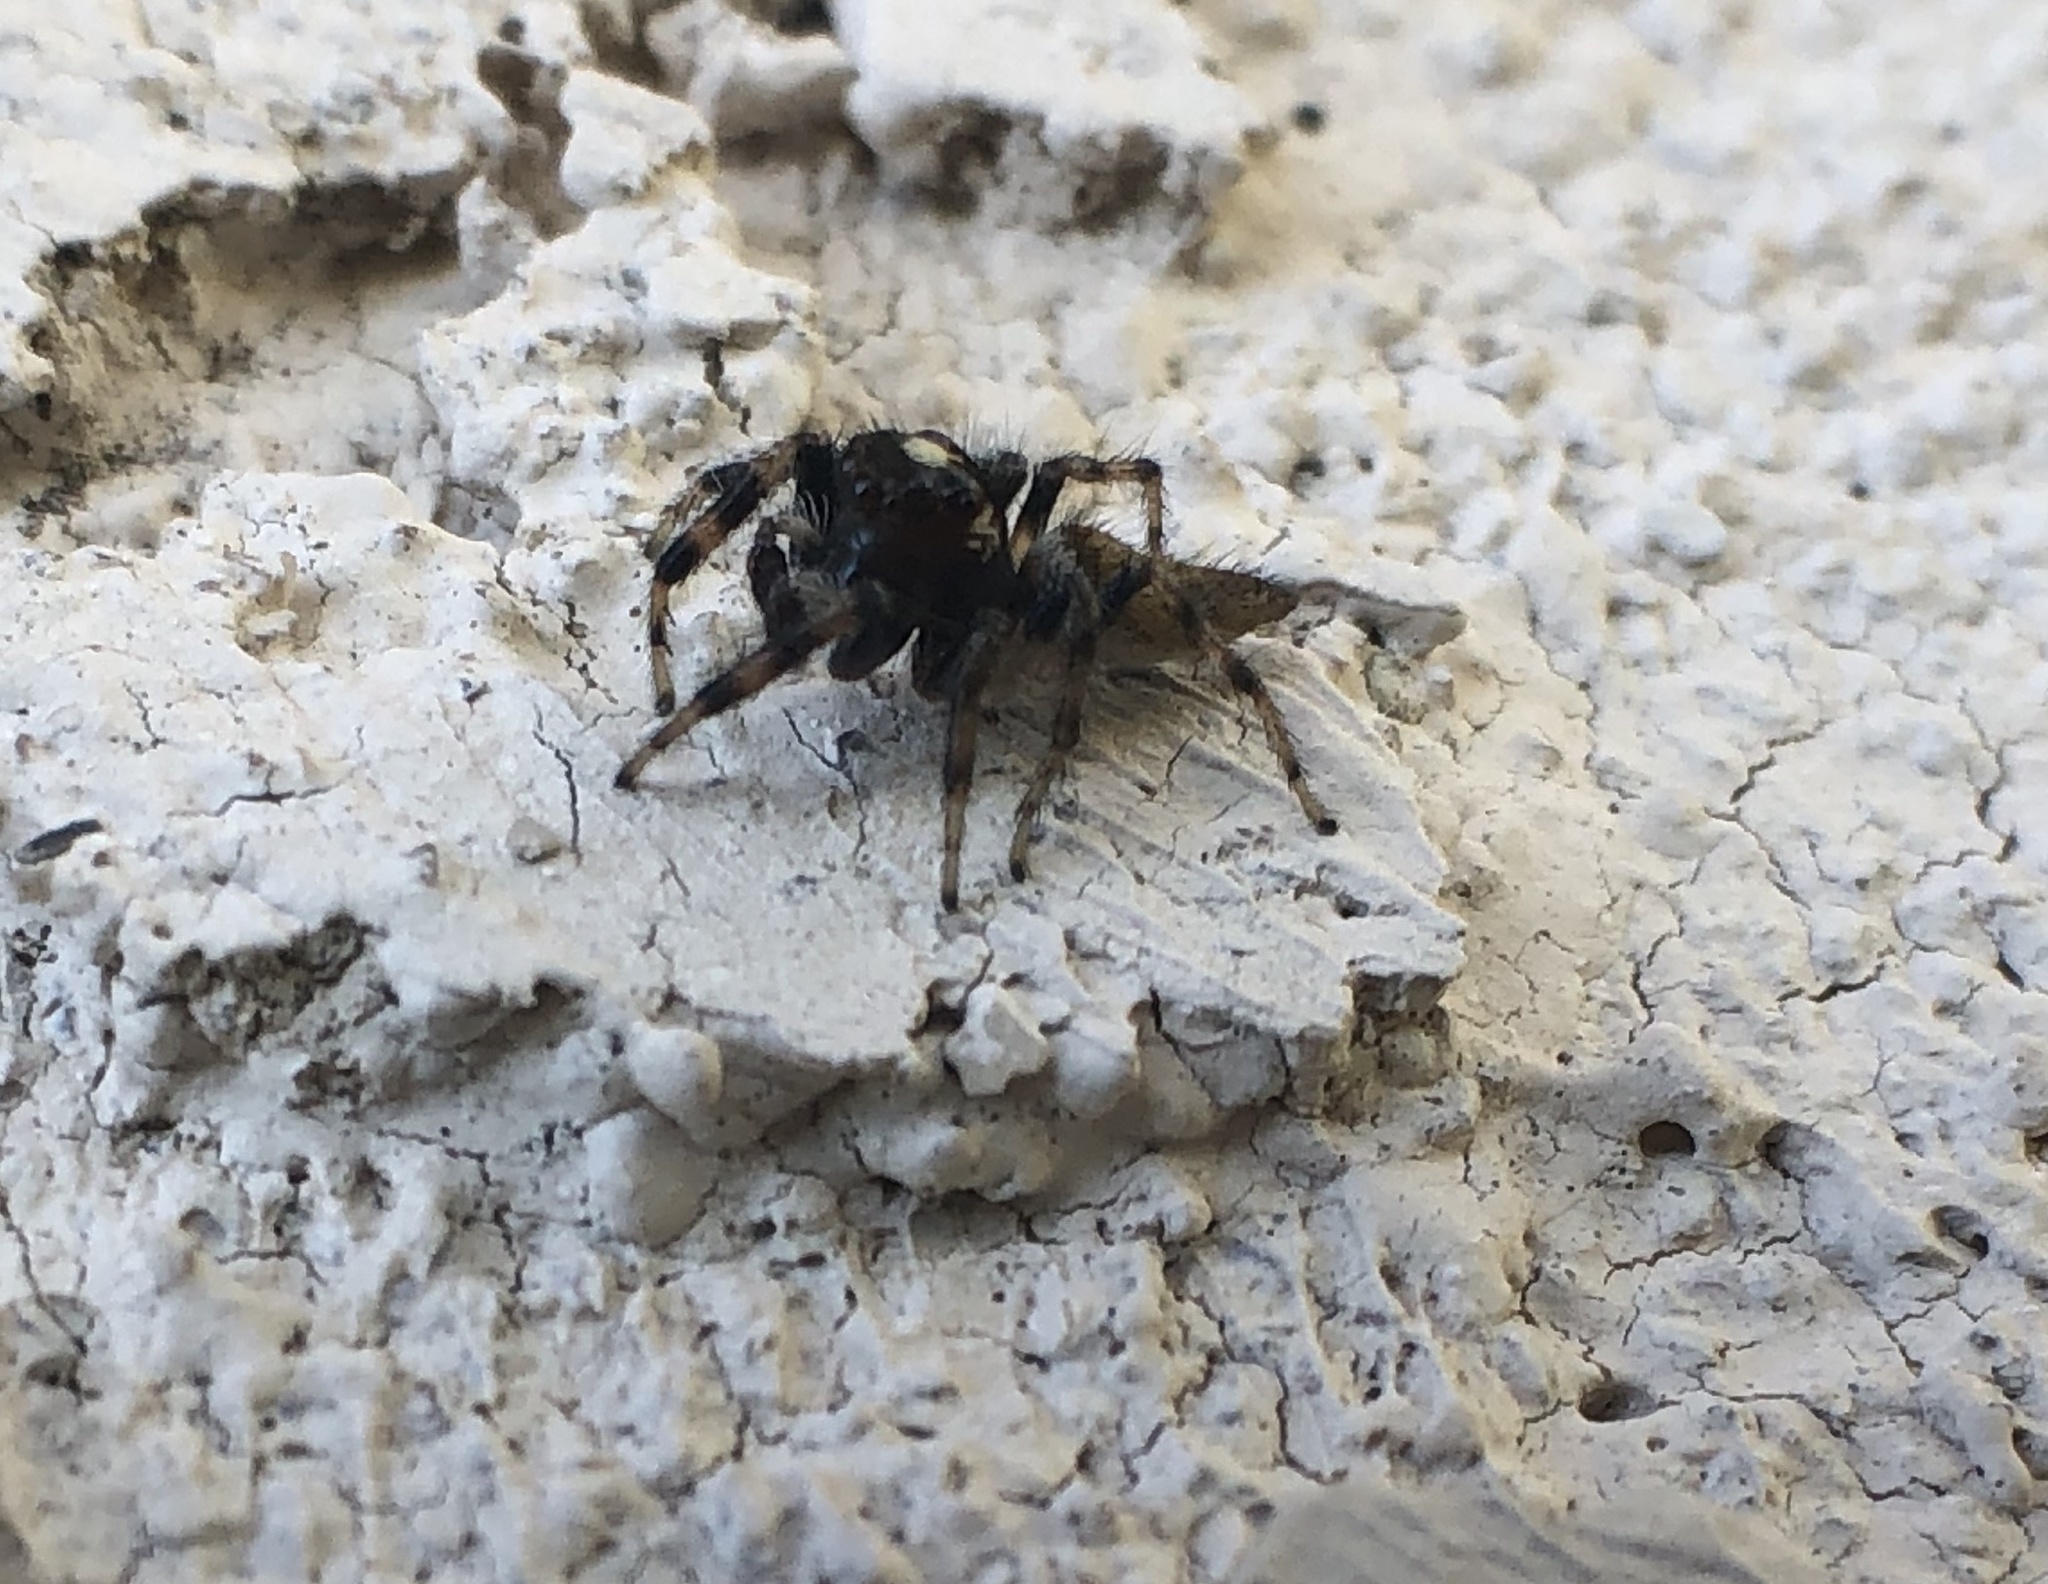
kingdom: Animalia
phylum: Arthropoda
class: Arachnida
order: Araneae
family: Salticidae
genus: Colonus
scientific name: Colonus hesperus
